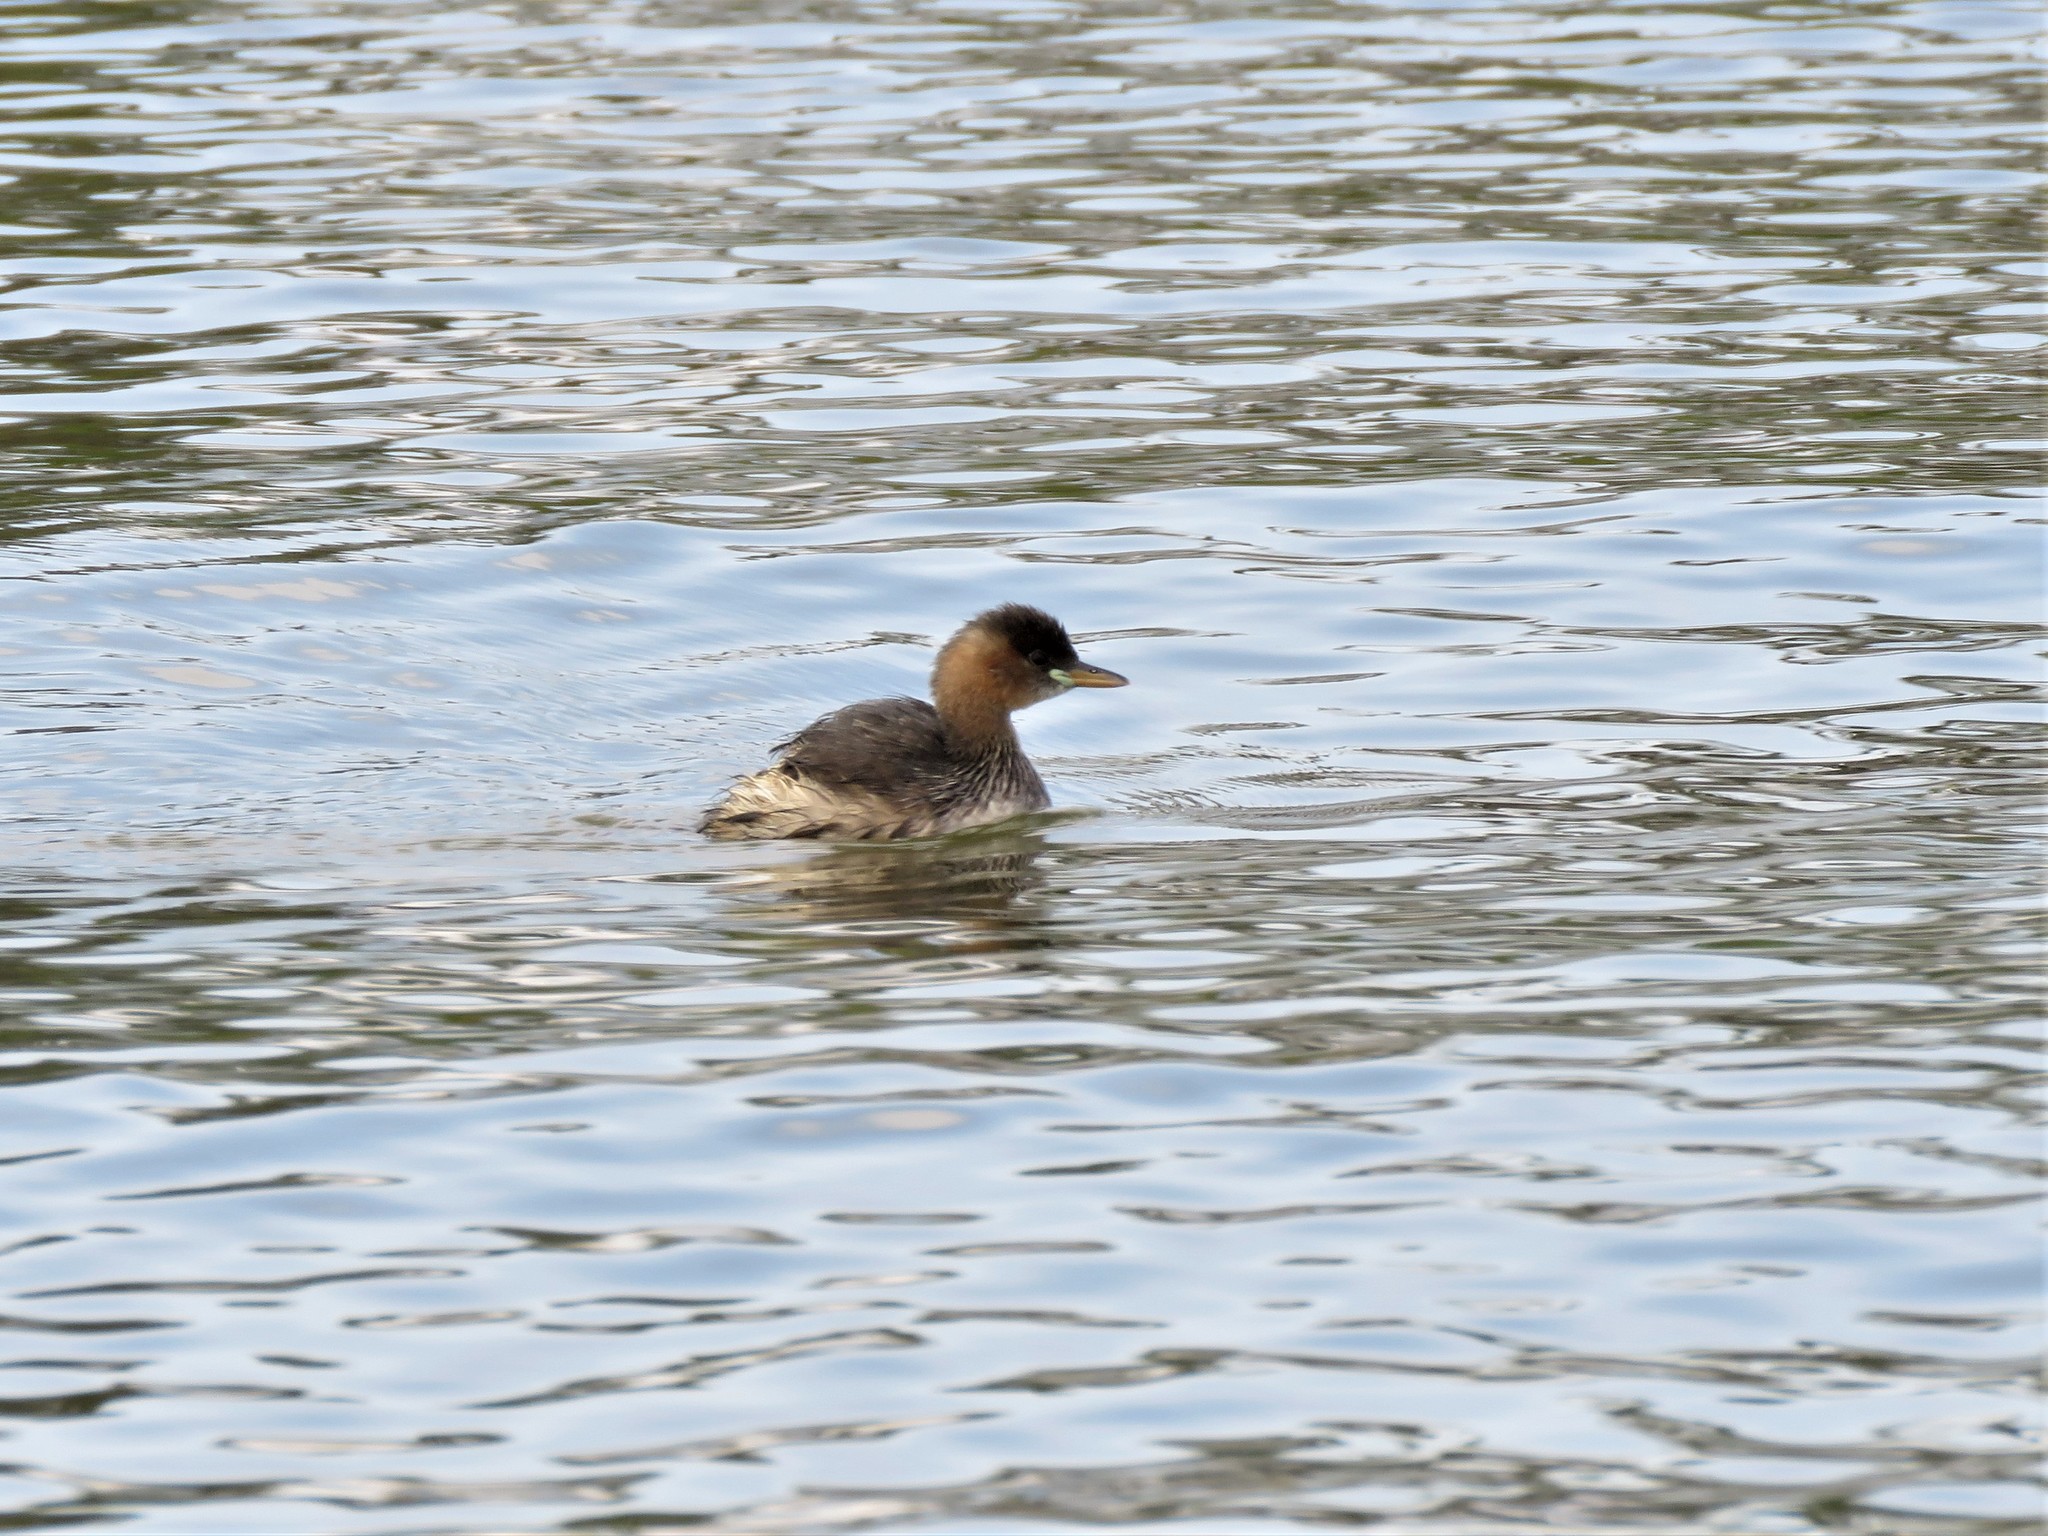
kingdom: Animalia
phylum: Chordata
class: Aves
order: Podicipediformes
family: Podicipedidae
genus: Tachybaptus
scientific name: Tachybaptus ruficollis
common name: Little grebe
